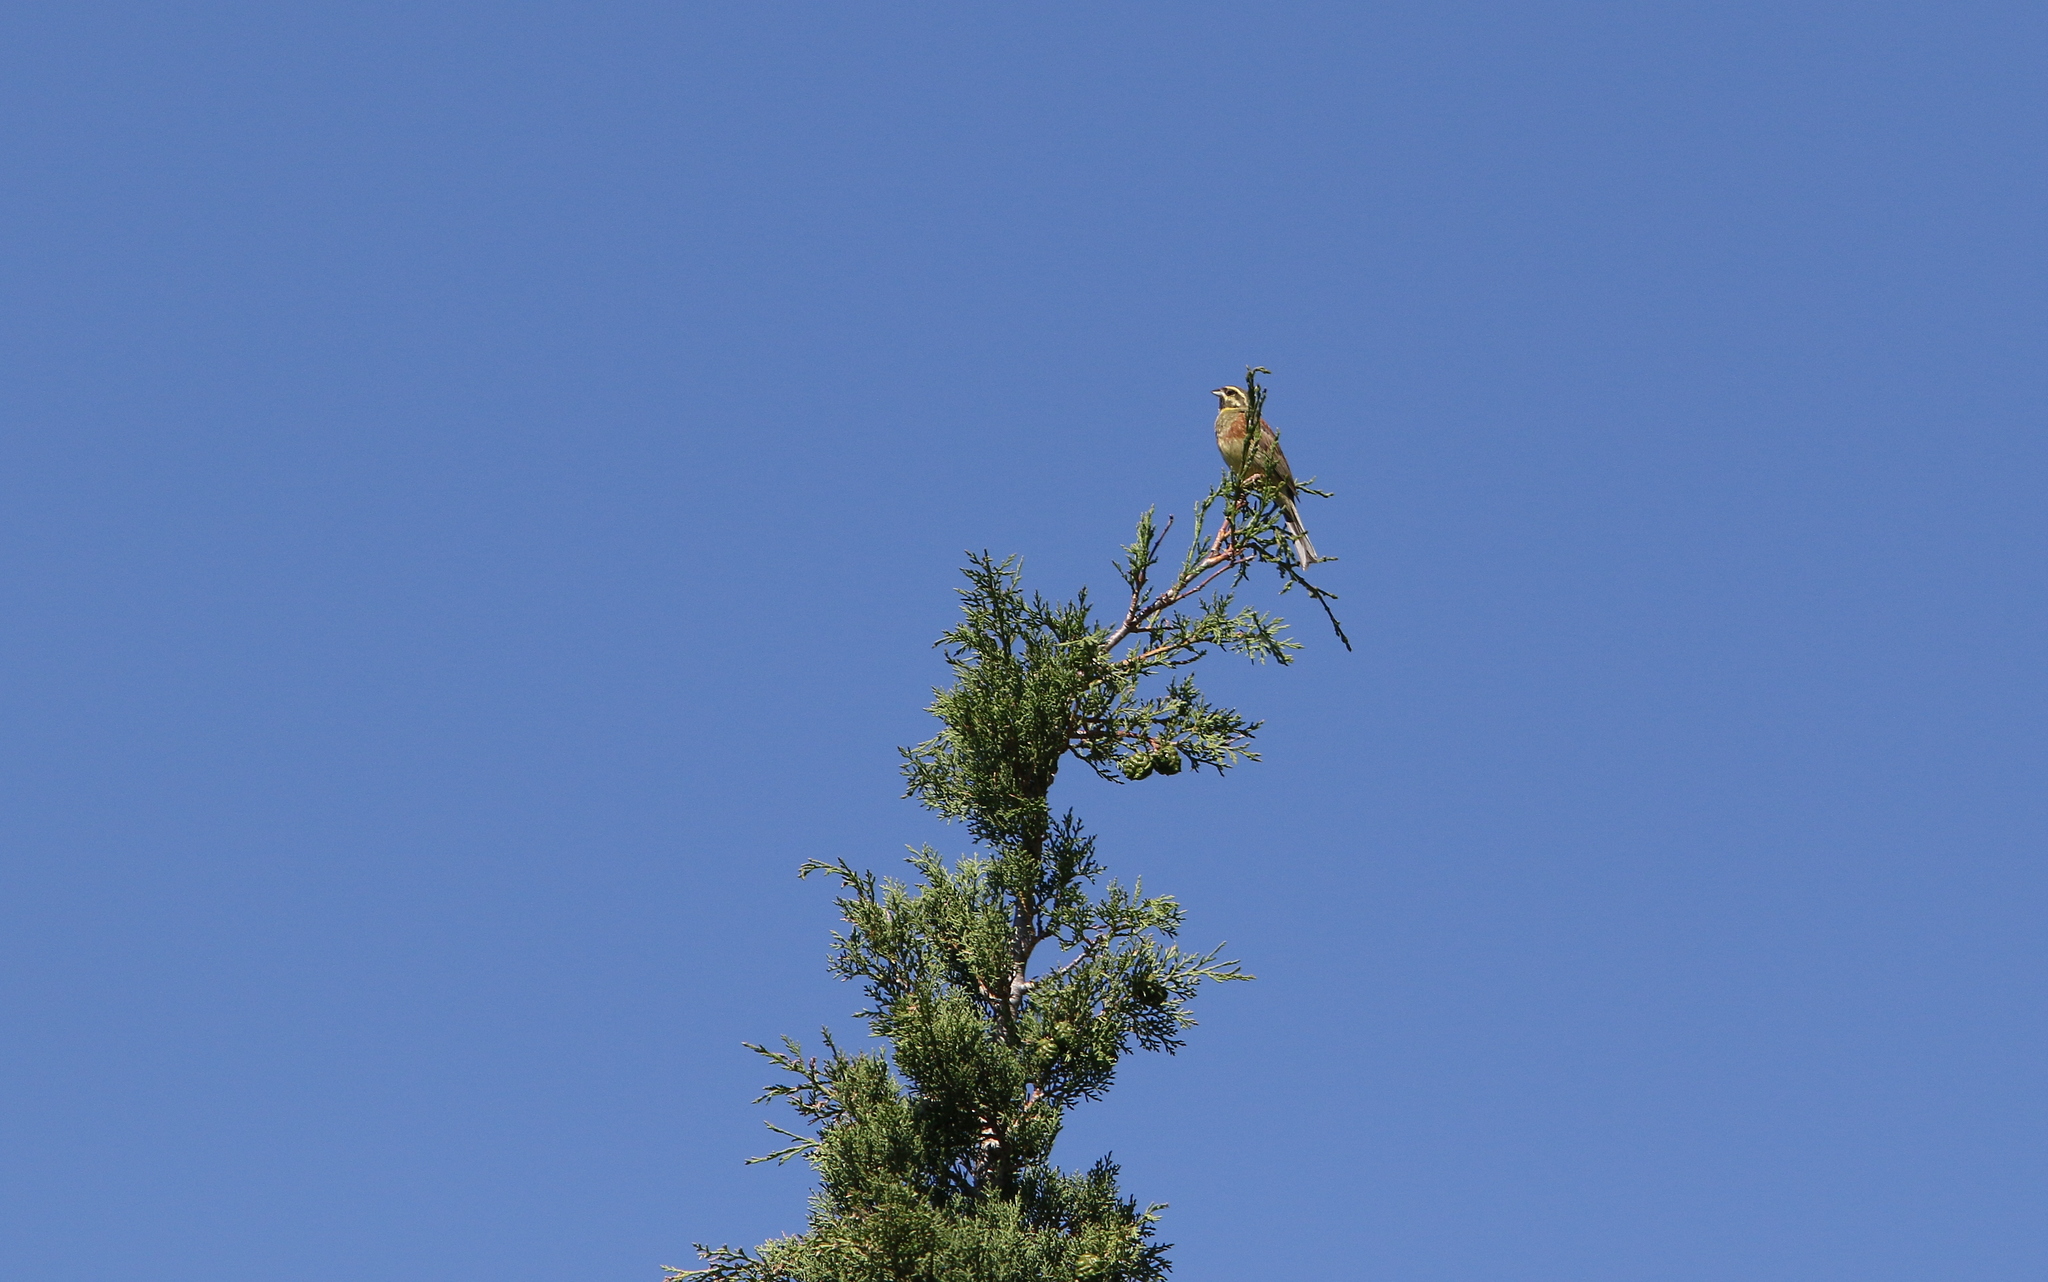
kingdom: Animalia
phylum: Chordata
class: Aves
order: Passeriformes
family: Emberizidae
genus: Emberiza
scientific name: Emberiza cirlus
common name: Cirl bunting
